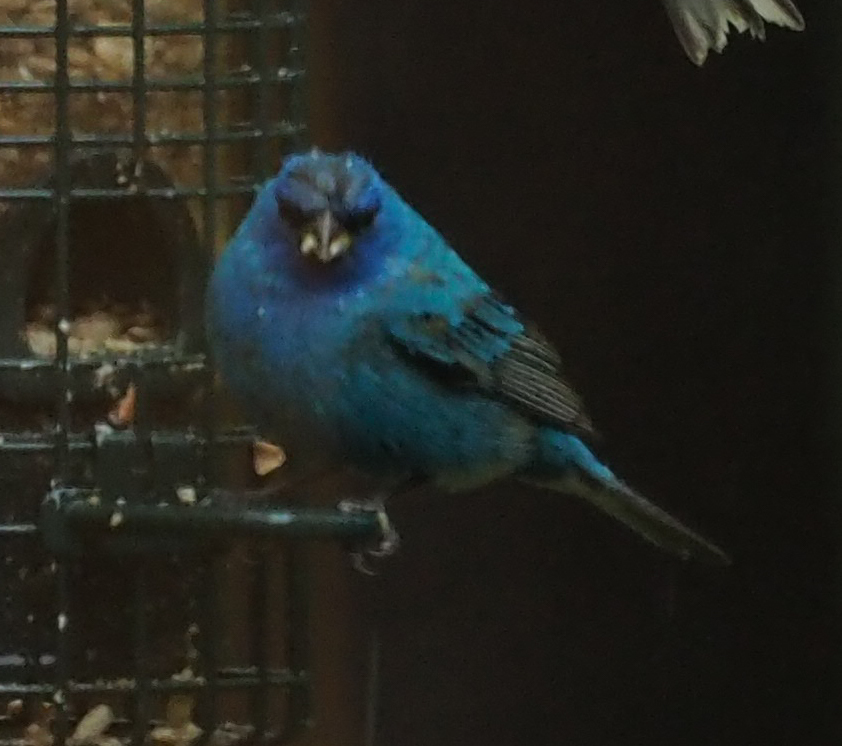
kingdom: Animalia
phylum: Chordata
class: Aves
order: Passeriformes
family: Cardinalidae
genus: Passerina
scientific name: Passerina cyanea
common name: Indigo bunting
